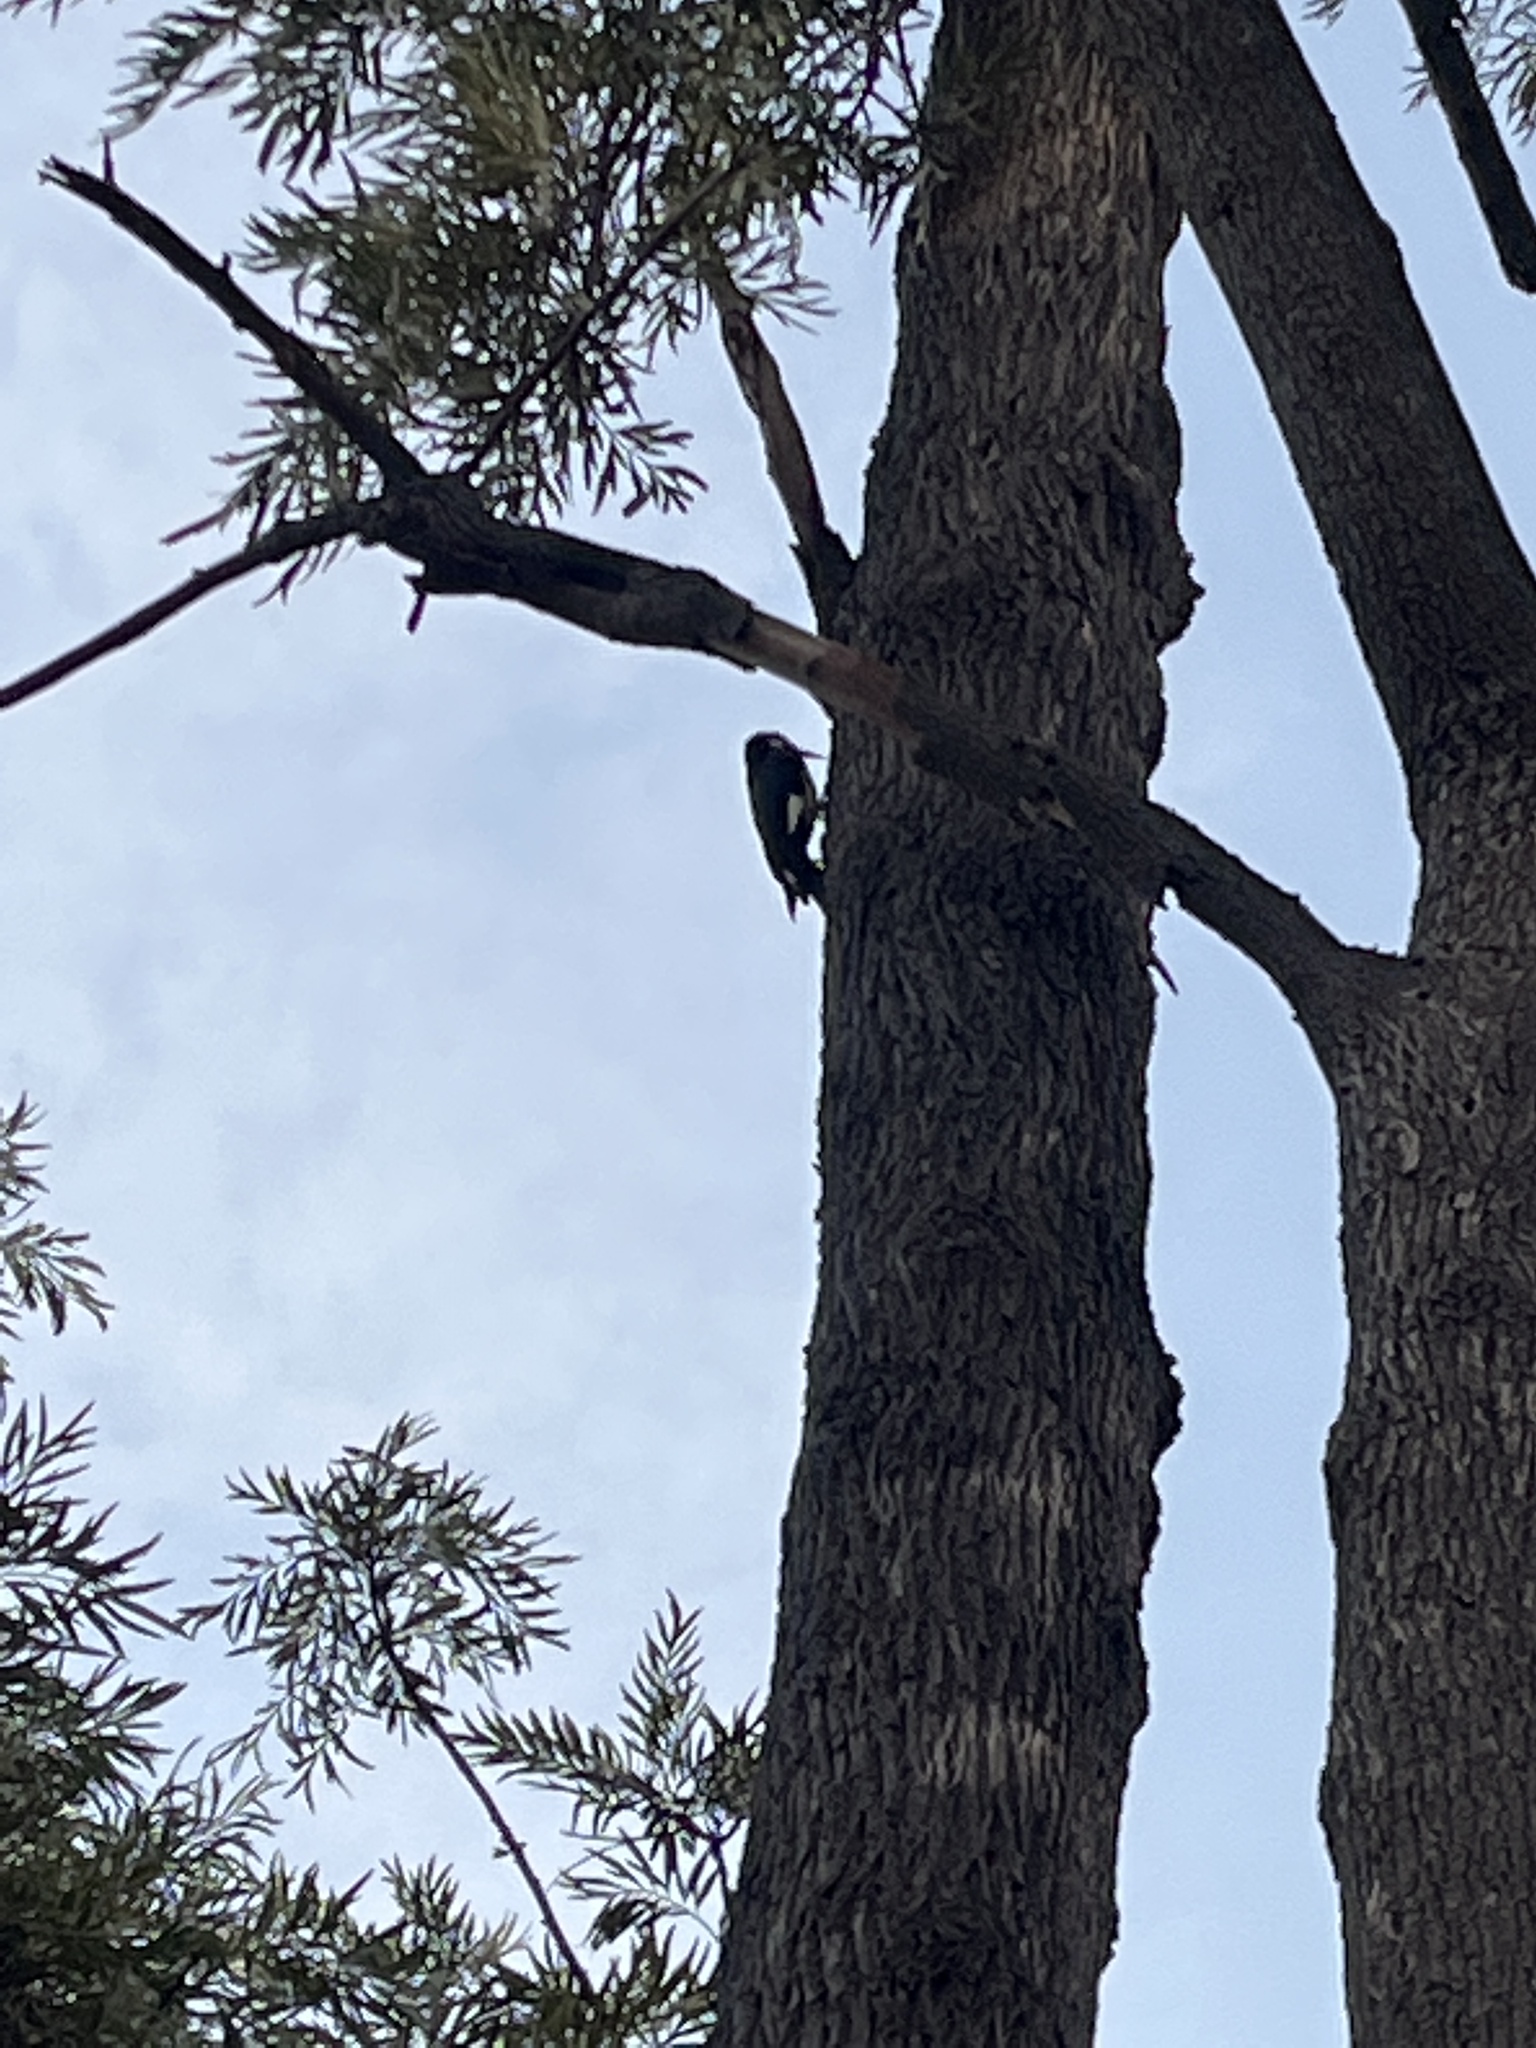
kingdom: Animalia
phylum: Chordata
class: Aves
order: Piciformes
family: Picidae
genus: Melanerpes
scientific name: Melanerpes formicivorus
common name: Acorn woodpecker
